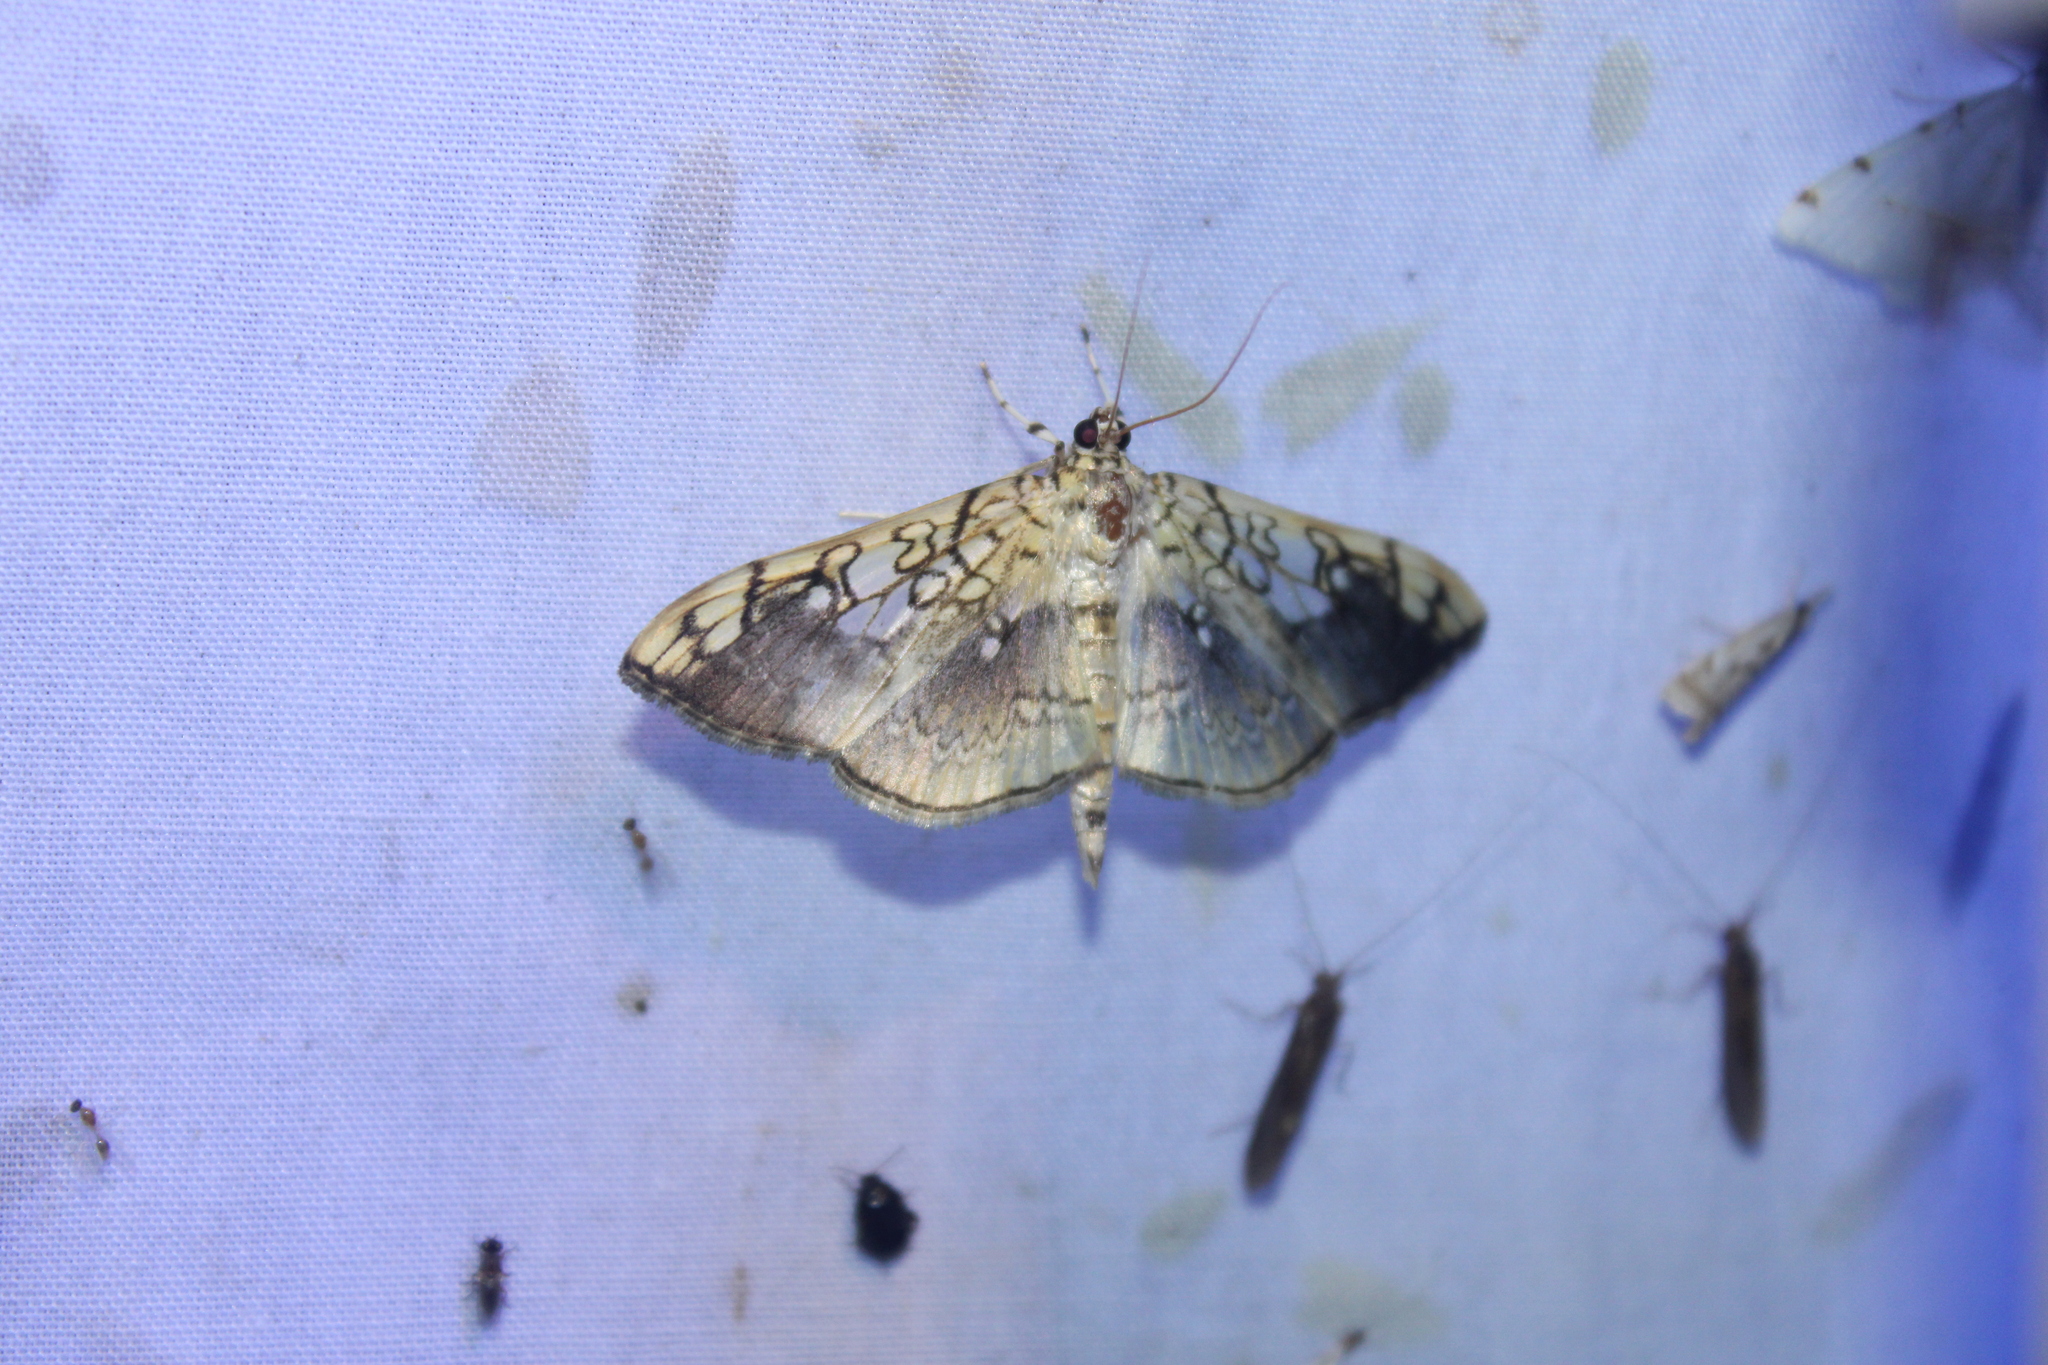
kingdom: Animalia
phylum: Arthropoda
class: Insecta
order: Lepidoptera
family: Crambidae
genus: Pantographa
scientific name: Pantographa limata
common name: Basswood leafroller moth
